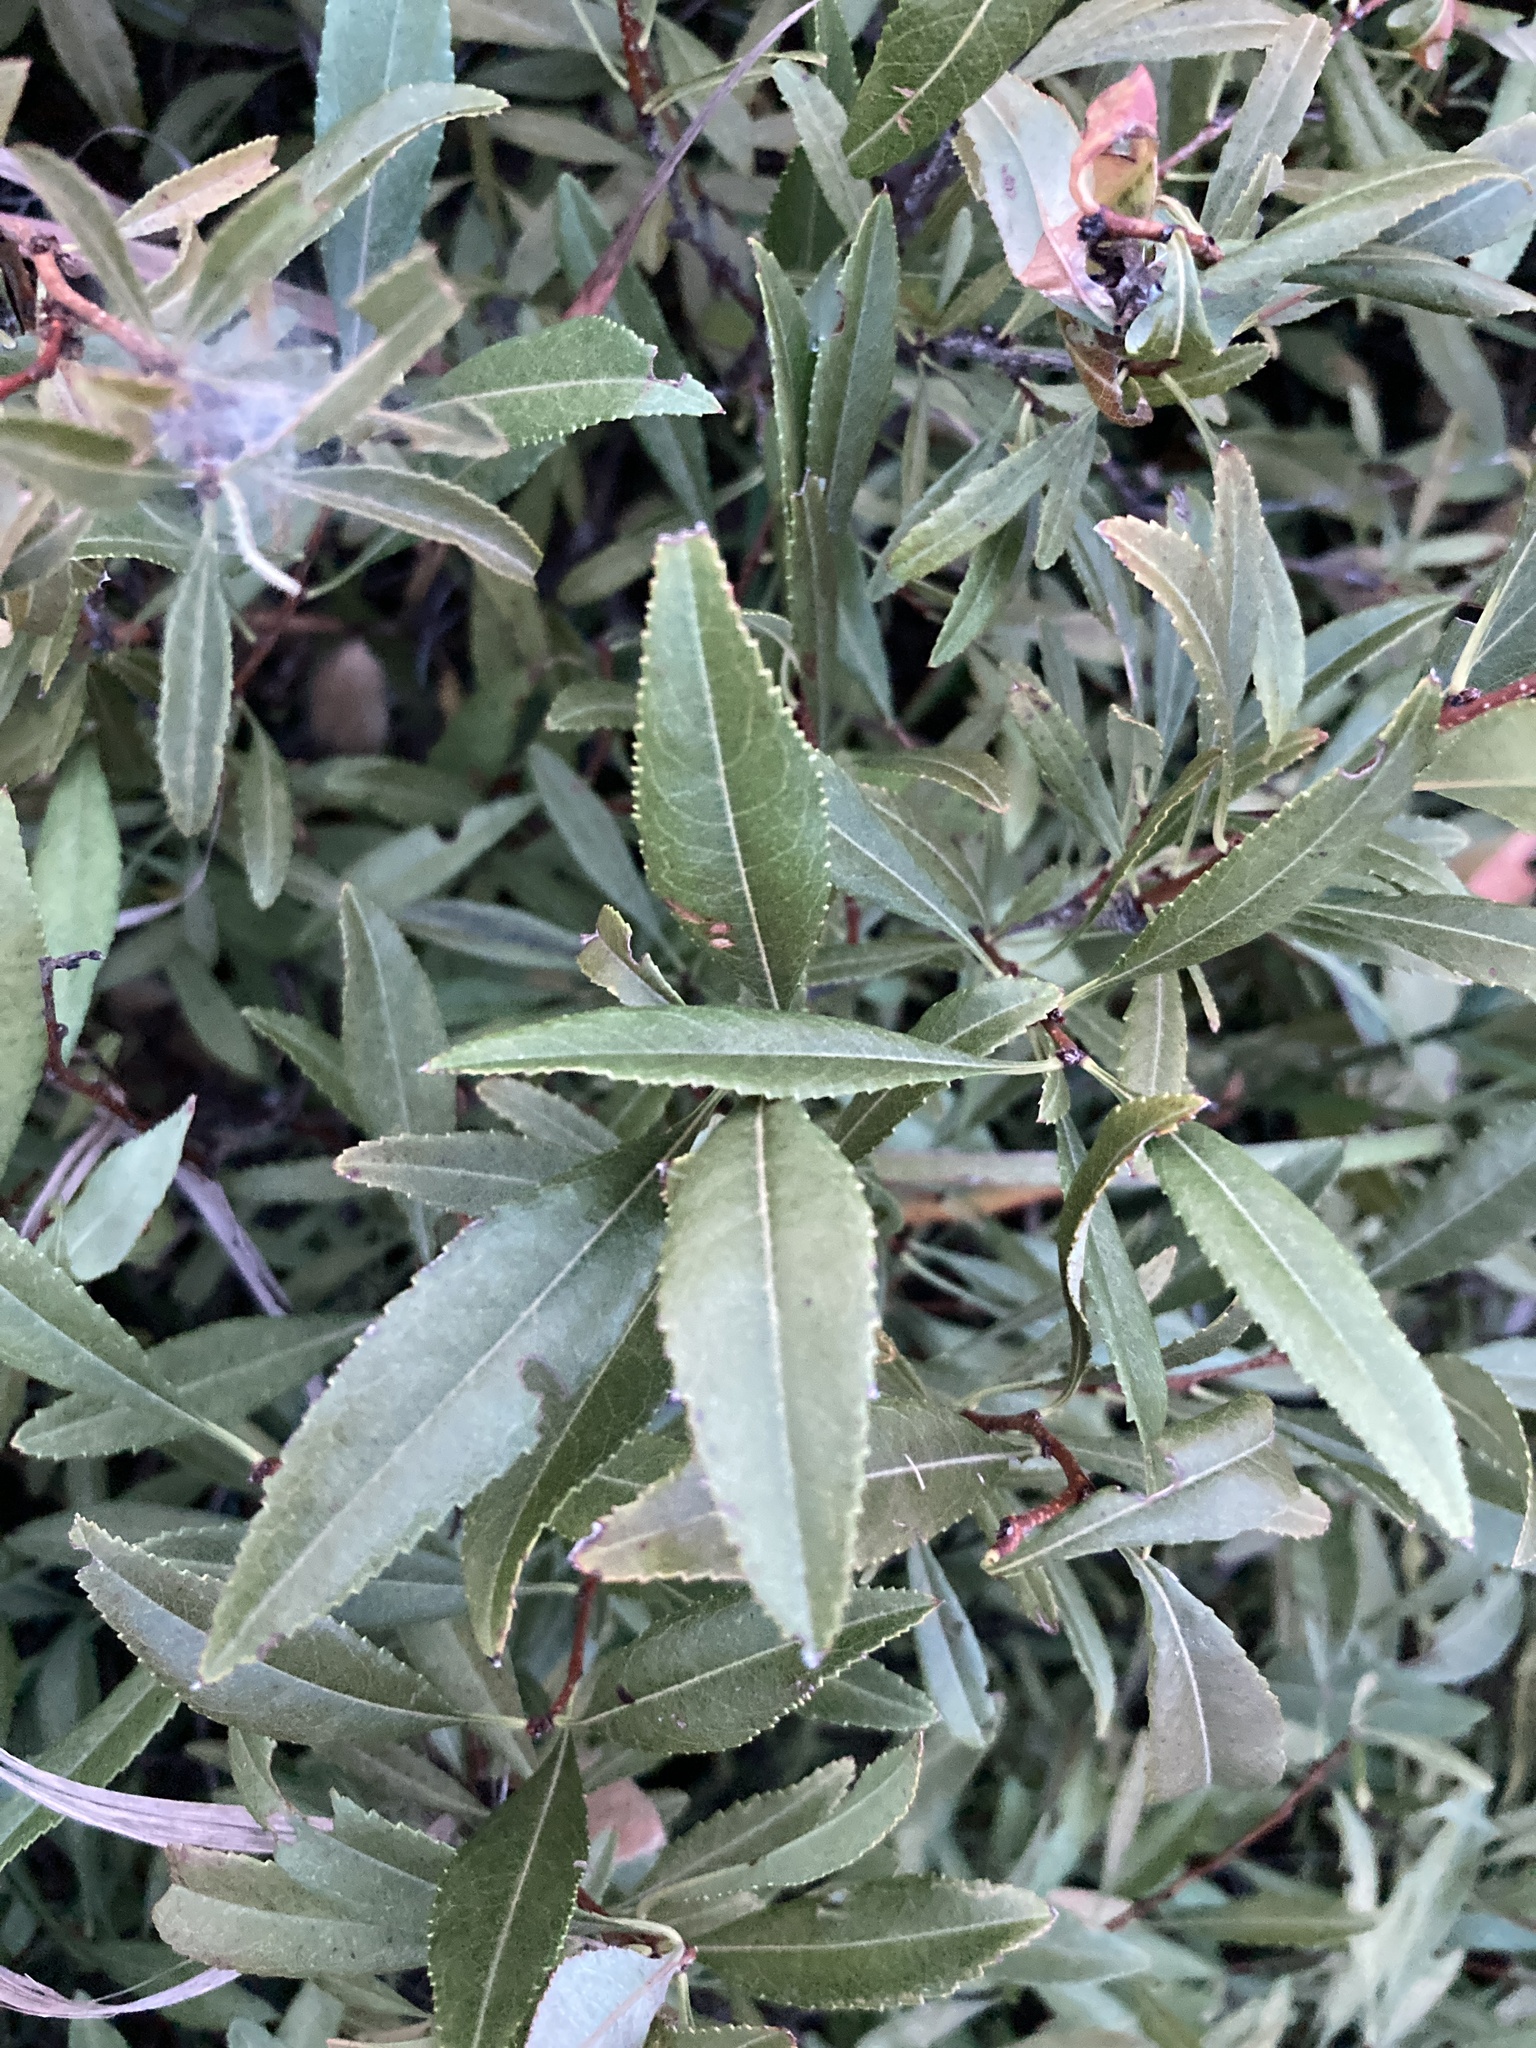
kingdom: Plantae
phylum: Tracheophyta
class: Magnoliopsida
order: Rosales
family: Rosaceae
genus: Prunus
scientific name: Prunus tenella
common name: Dwarf russian almond
